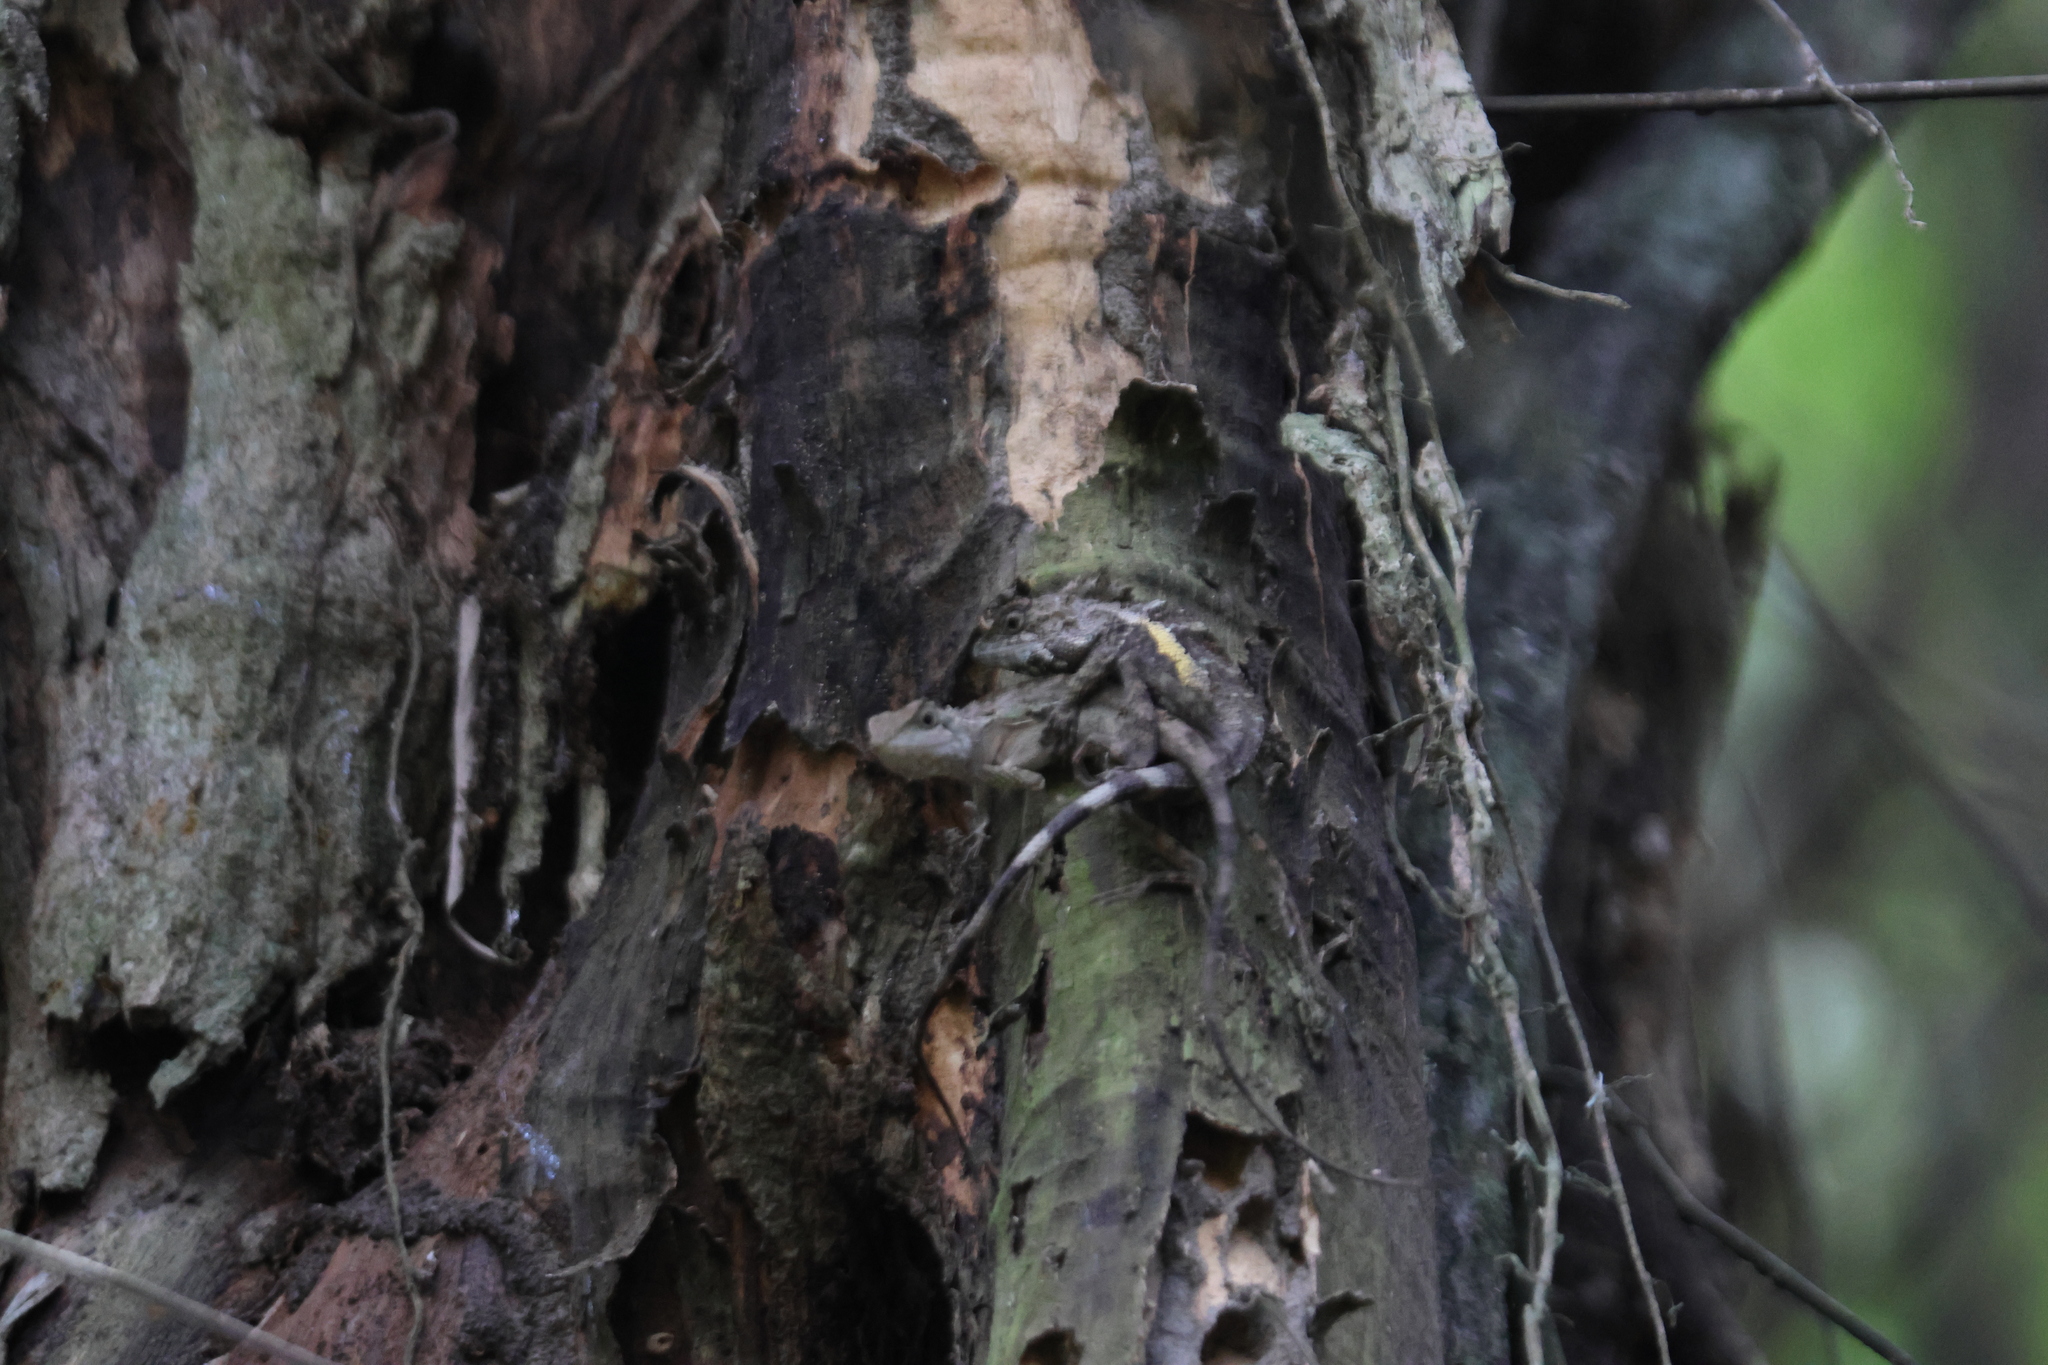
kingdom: Animalia
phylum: Chordata
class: Squamata
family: Agamidae
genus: Diploderma
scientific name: Diploderma swinhonis
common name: Taiwan japalure
